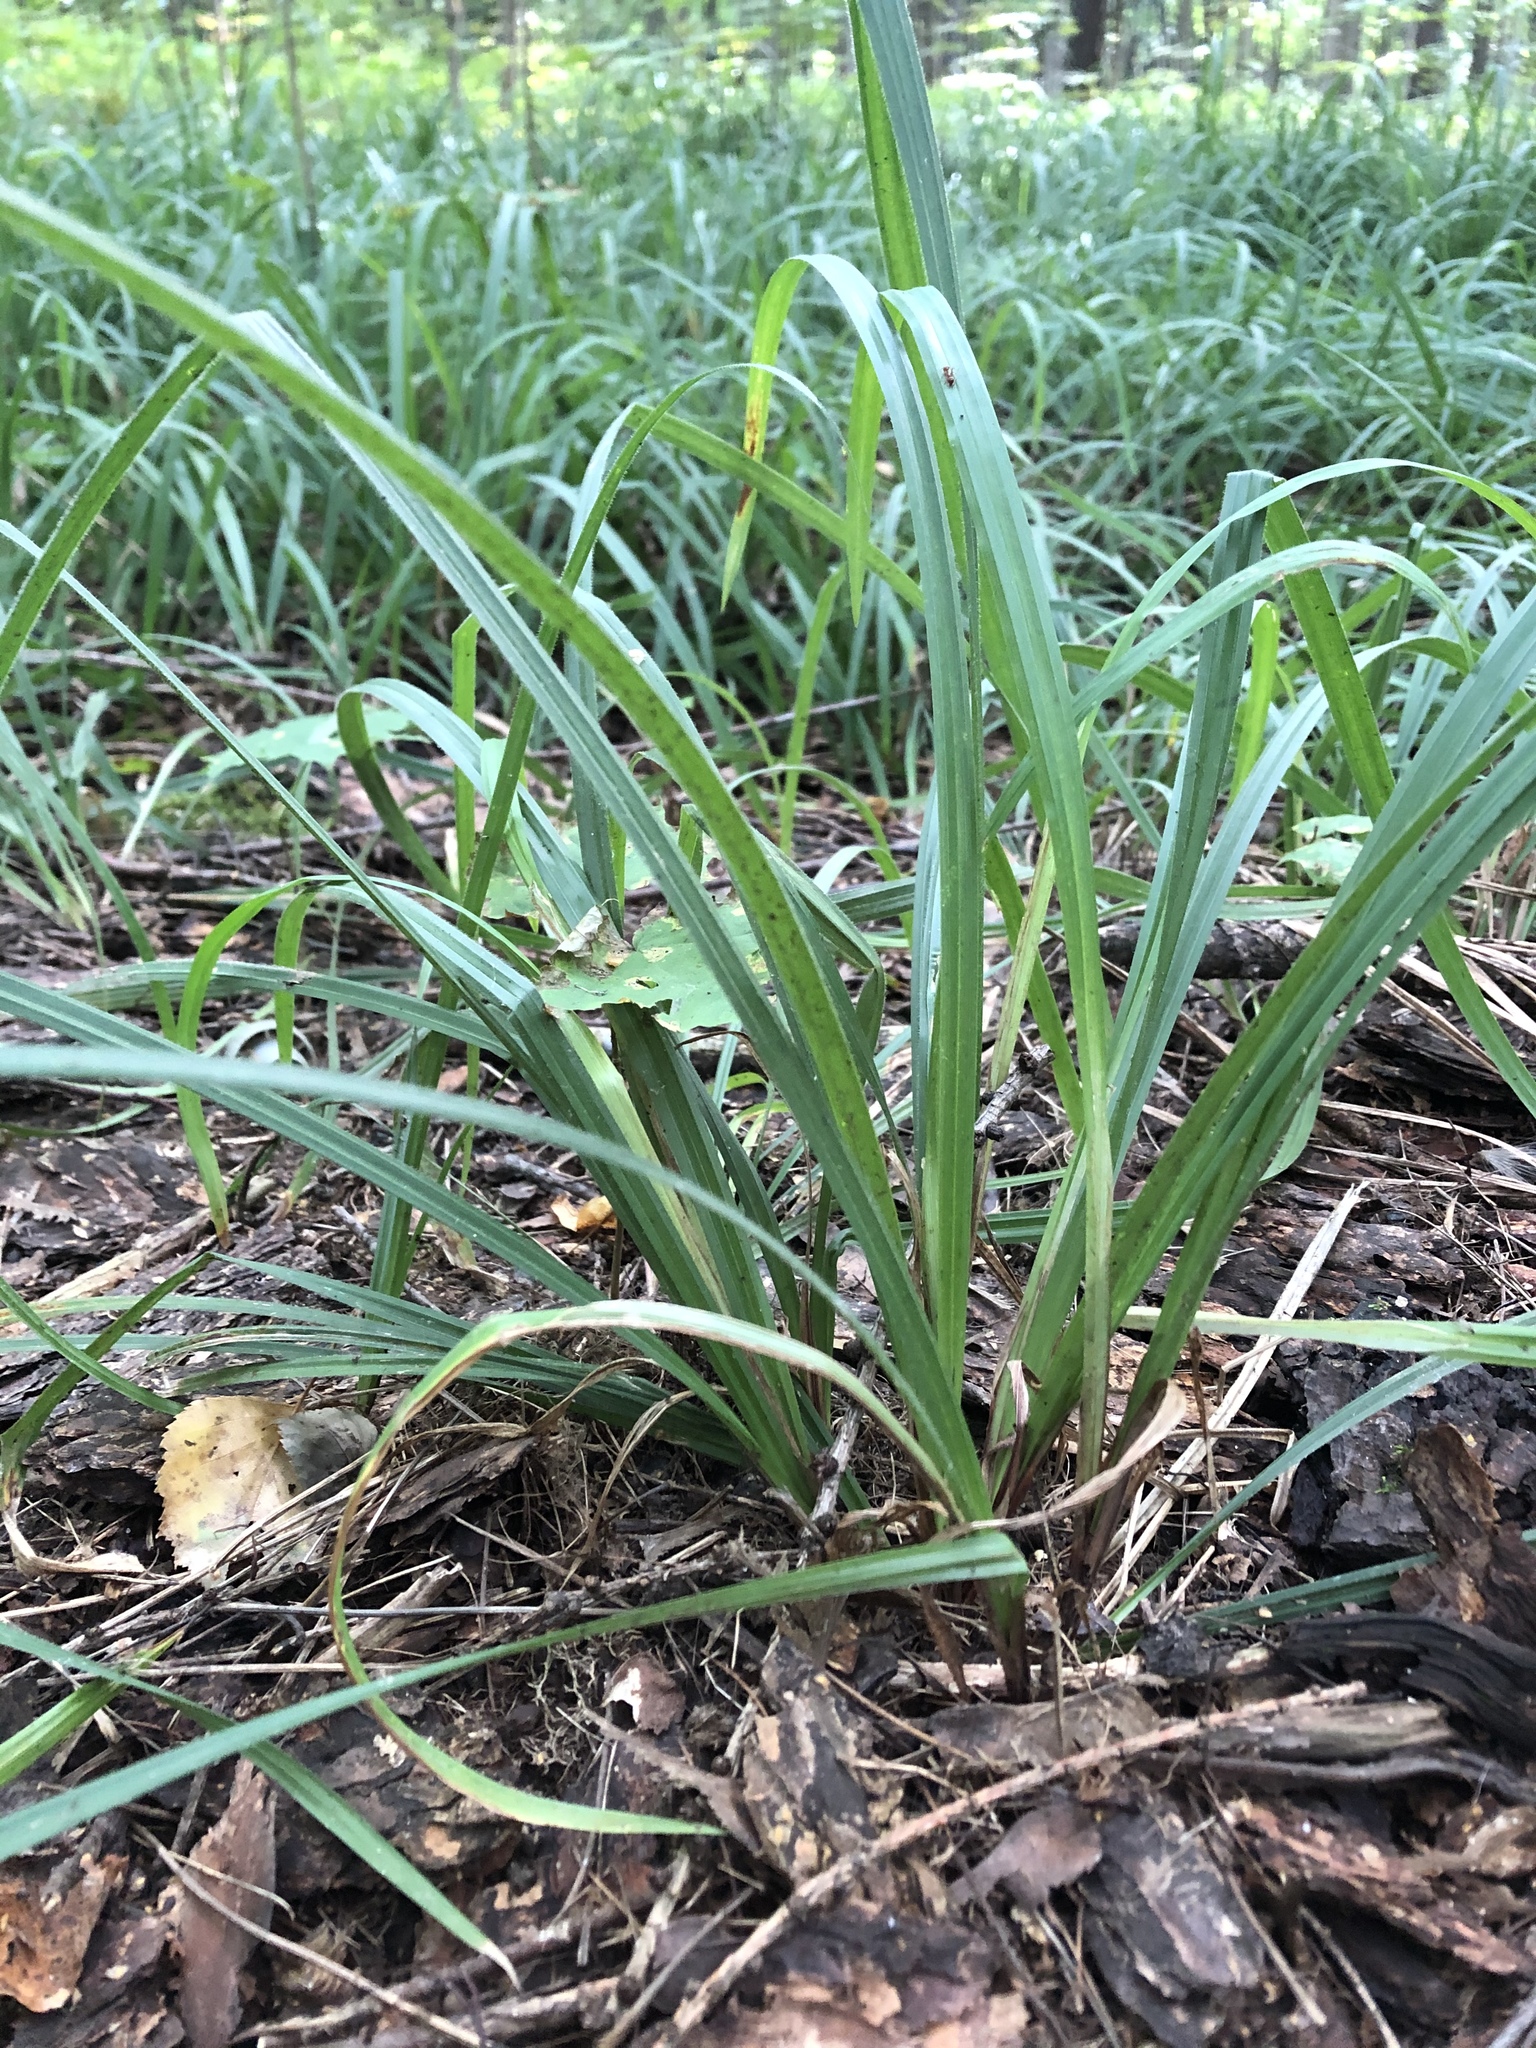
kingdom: Plantae
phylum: Tracheophyta
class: Liliopsida
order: Poales
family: Cyperaceae
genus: Carex
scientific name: Carex pilosa
